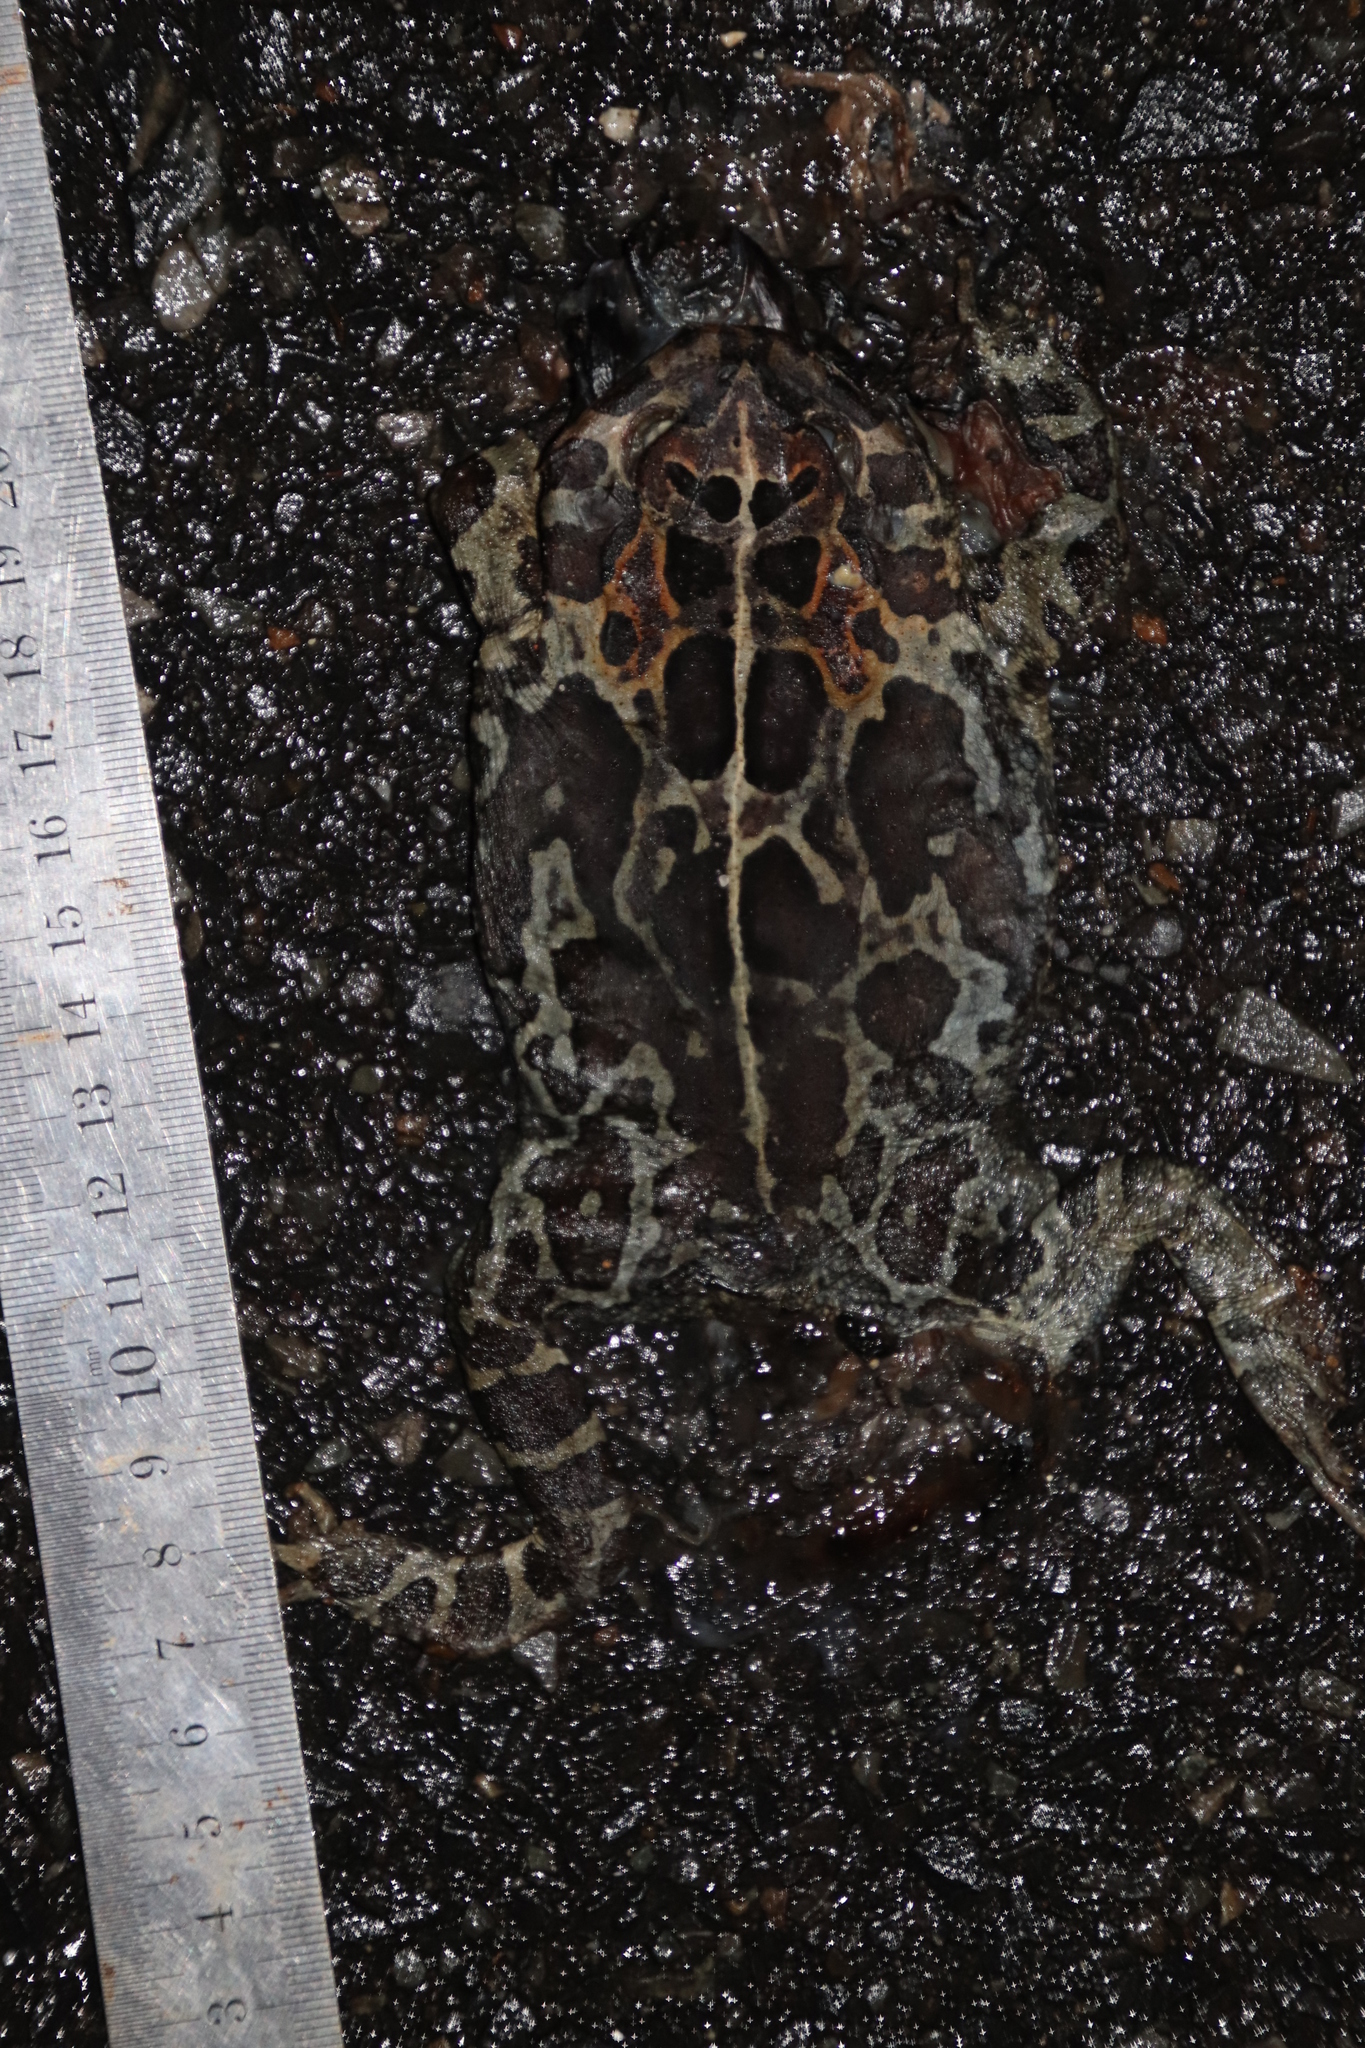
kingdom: Animalia
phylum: Chordata
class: Amphibia
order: Anura
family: Bufonidae
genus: Sclerophrys
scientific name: Sclerophrys pantherina
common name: Panther toad
